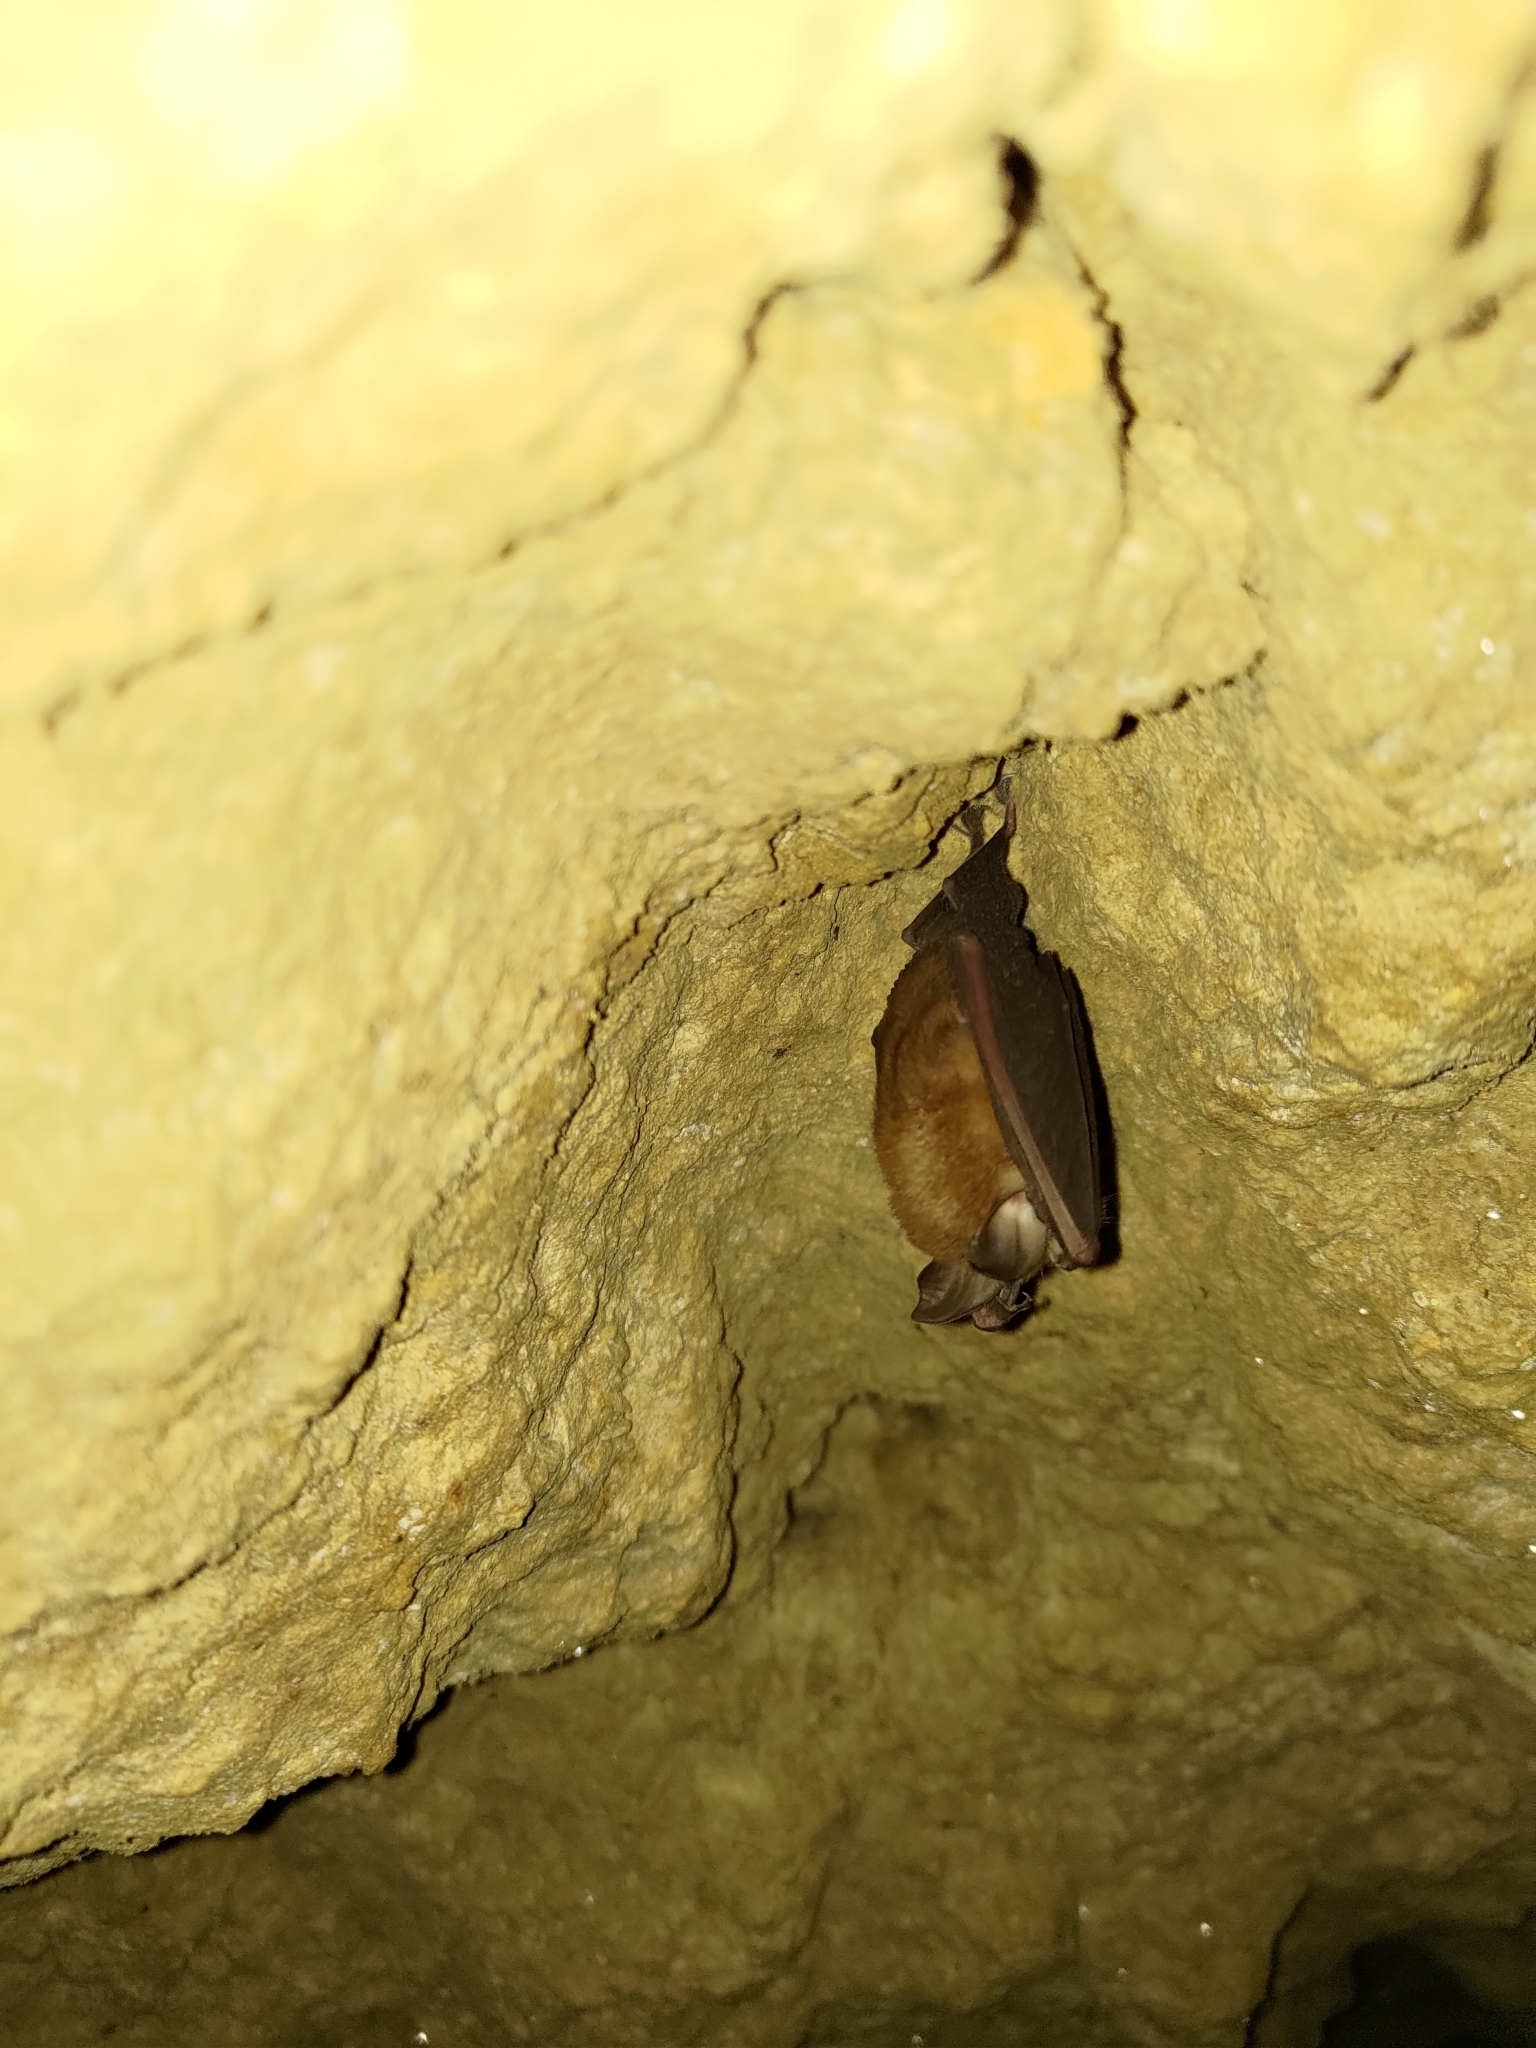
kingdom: Animalia
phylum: Chordata
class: Mammalia
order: Chiroptera
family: Rhinolophidae
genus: Rhinolophus
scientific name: Rhinolophus monoceros
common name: Formosan lesser horseshoe bat
